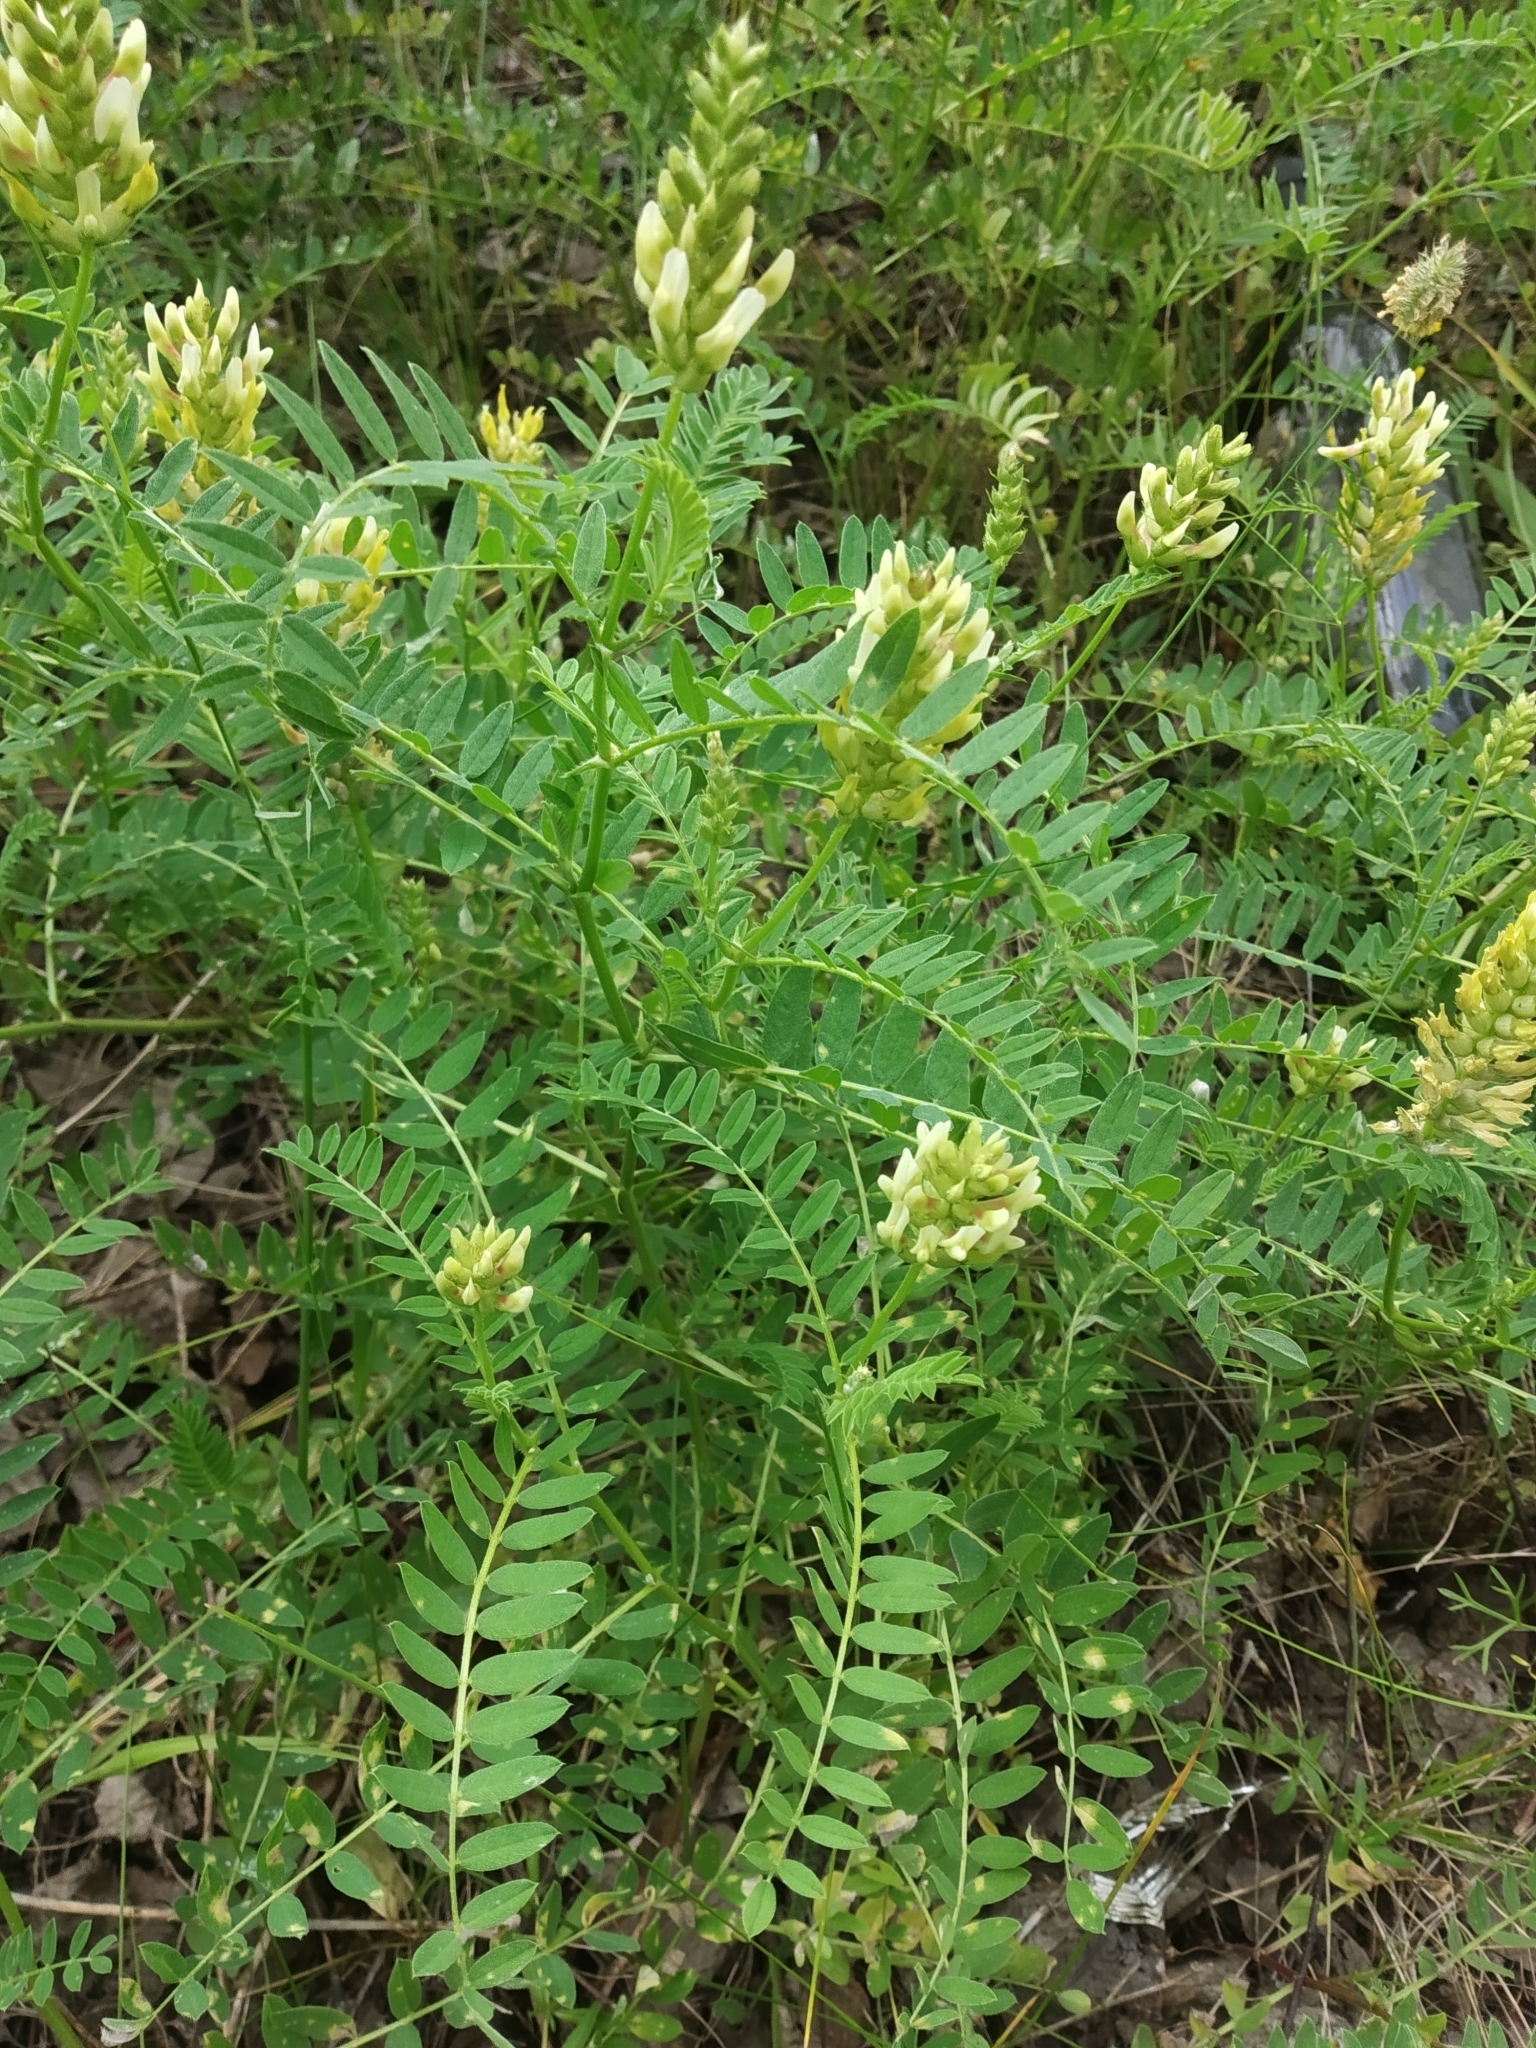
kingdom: Plantae
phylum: Tracheophyta
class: Magnoliopsida
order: Fabales
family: Fabaceae
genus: Astragalus
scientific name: Astragalus cicer
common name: Chick-pea milk-vetch
